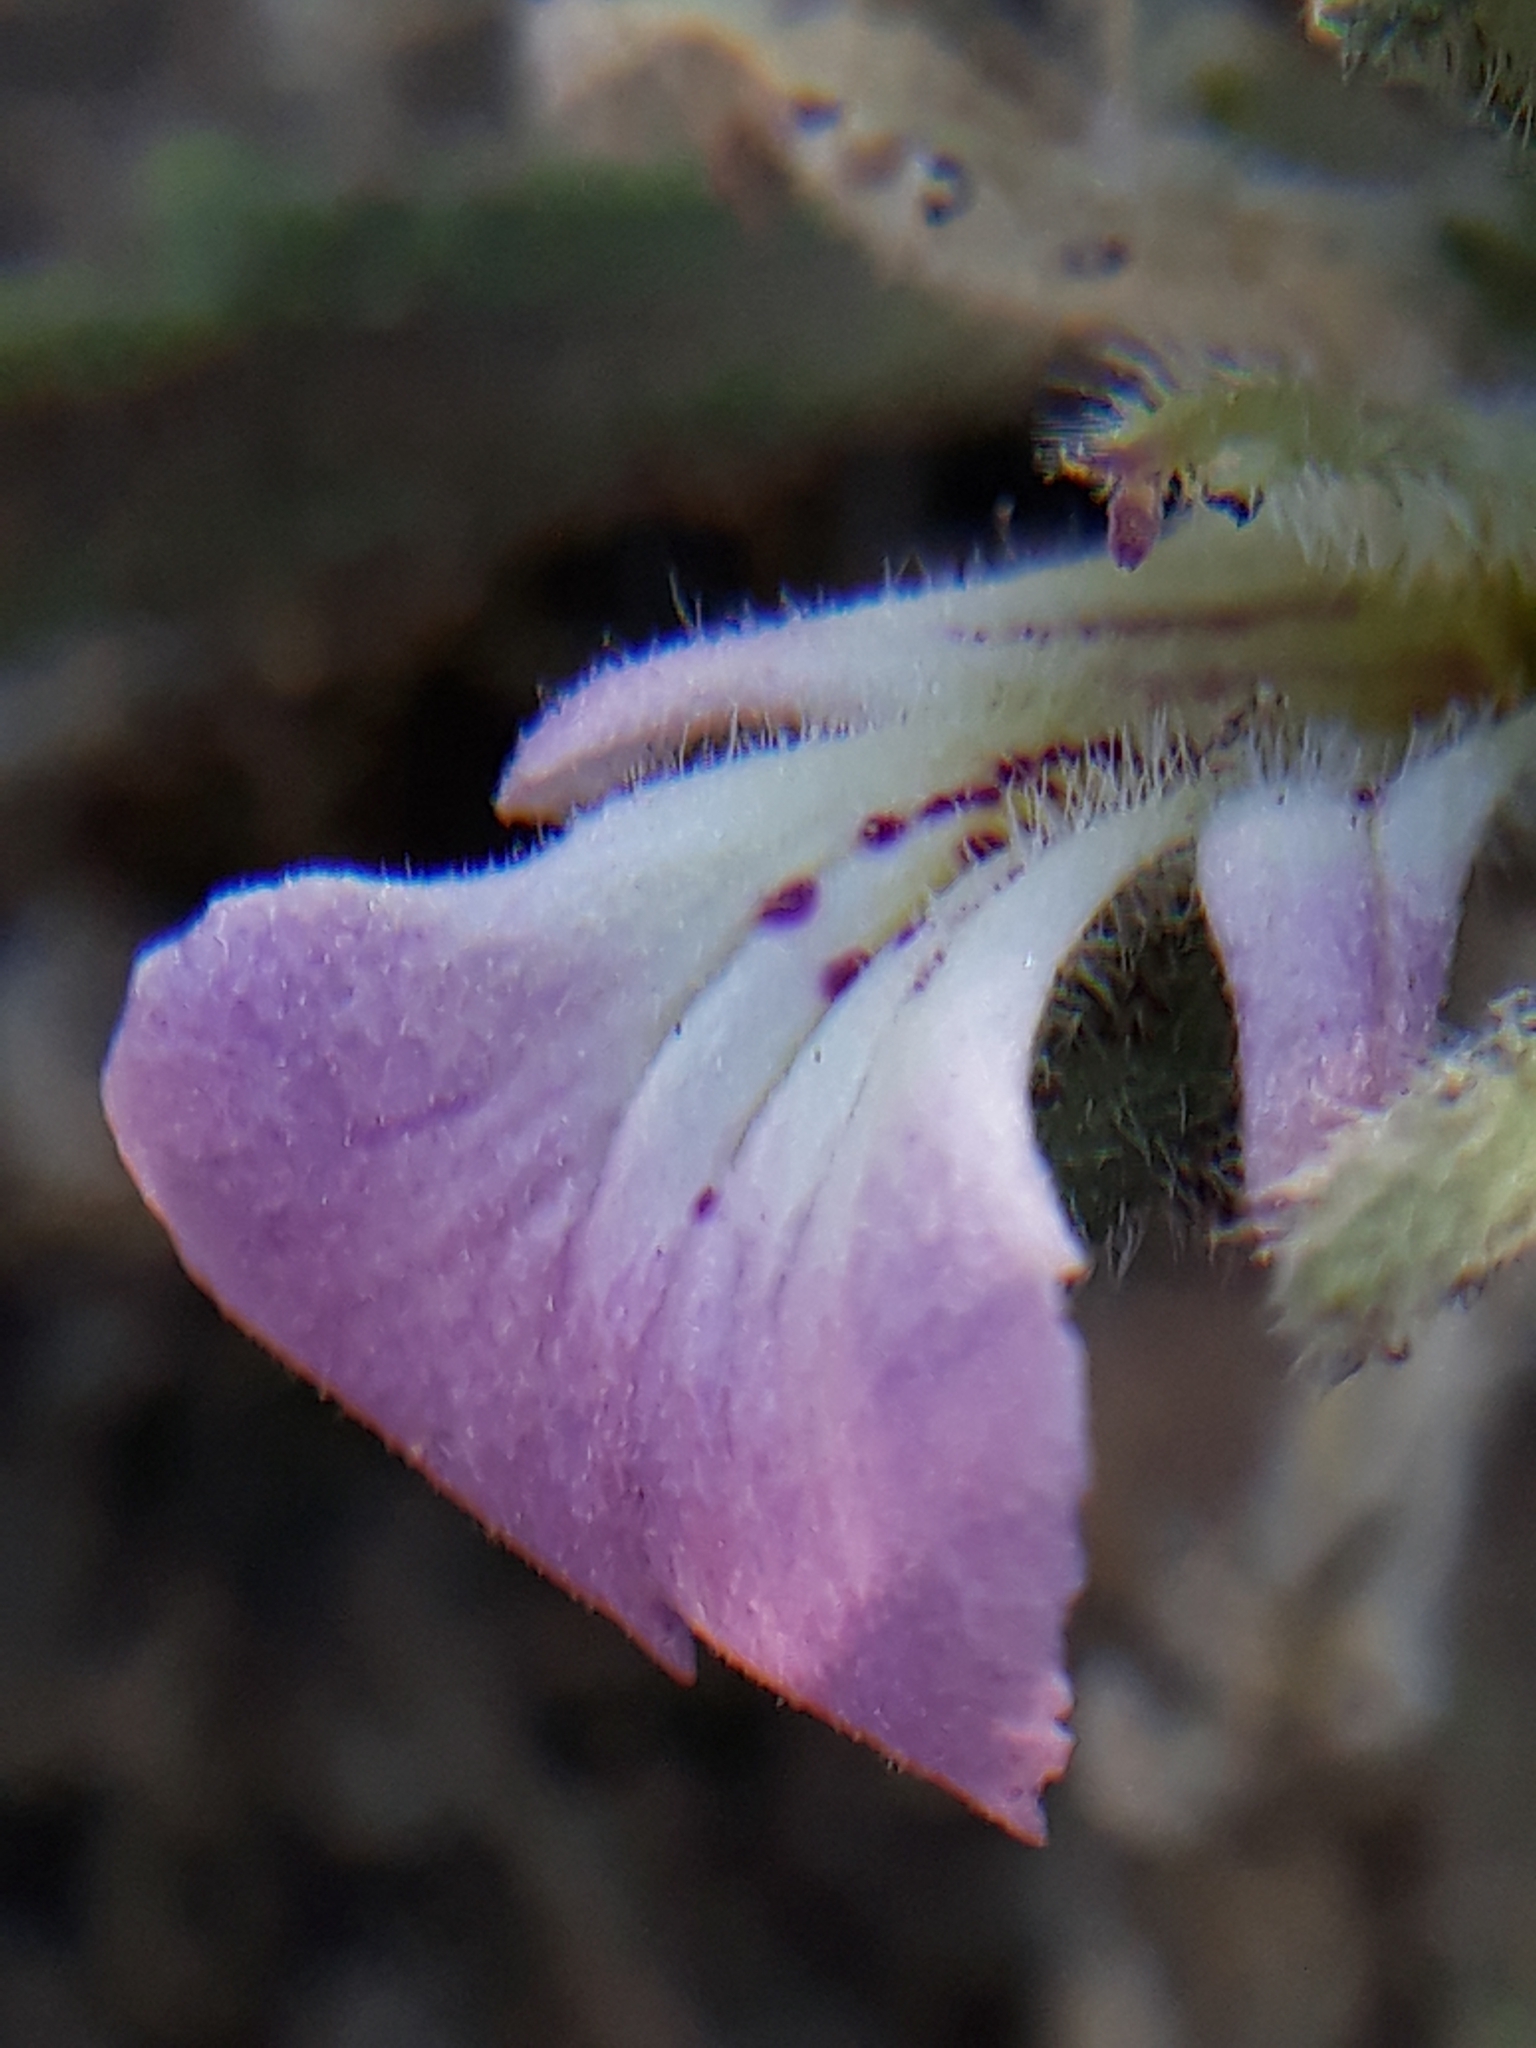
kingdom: Plantae
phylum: Tracheophyta
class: Magnoliopsida
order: Lamiales
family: Lamiaceae
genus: Ajuga
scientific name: Ajuga iva
